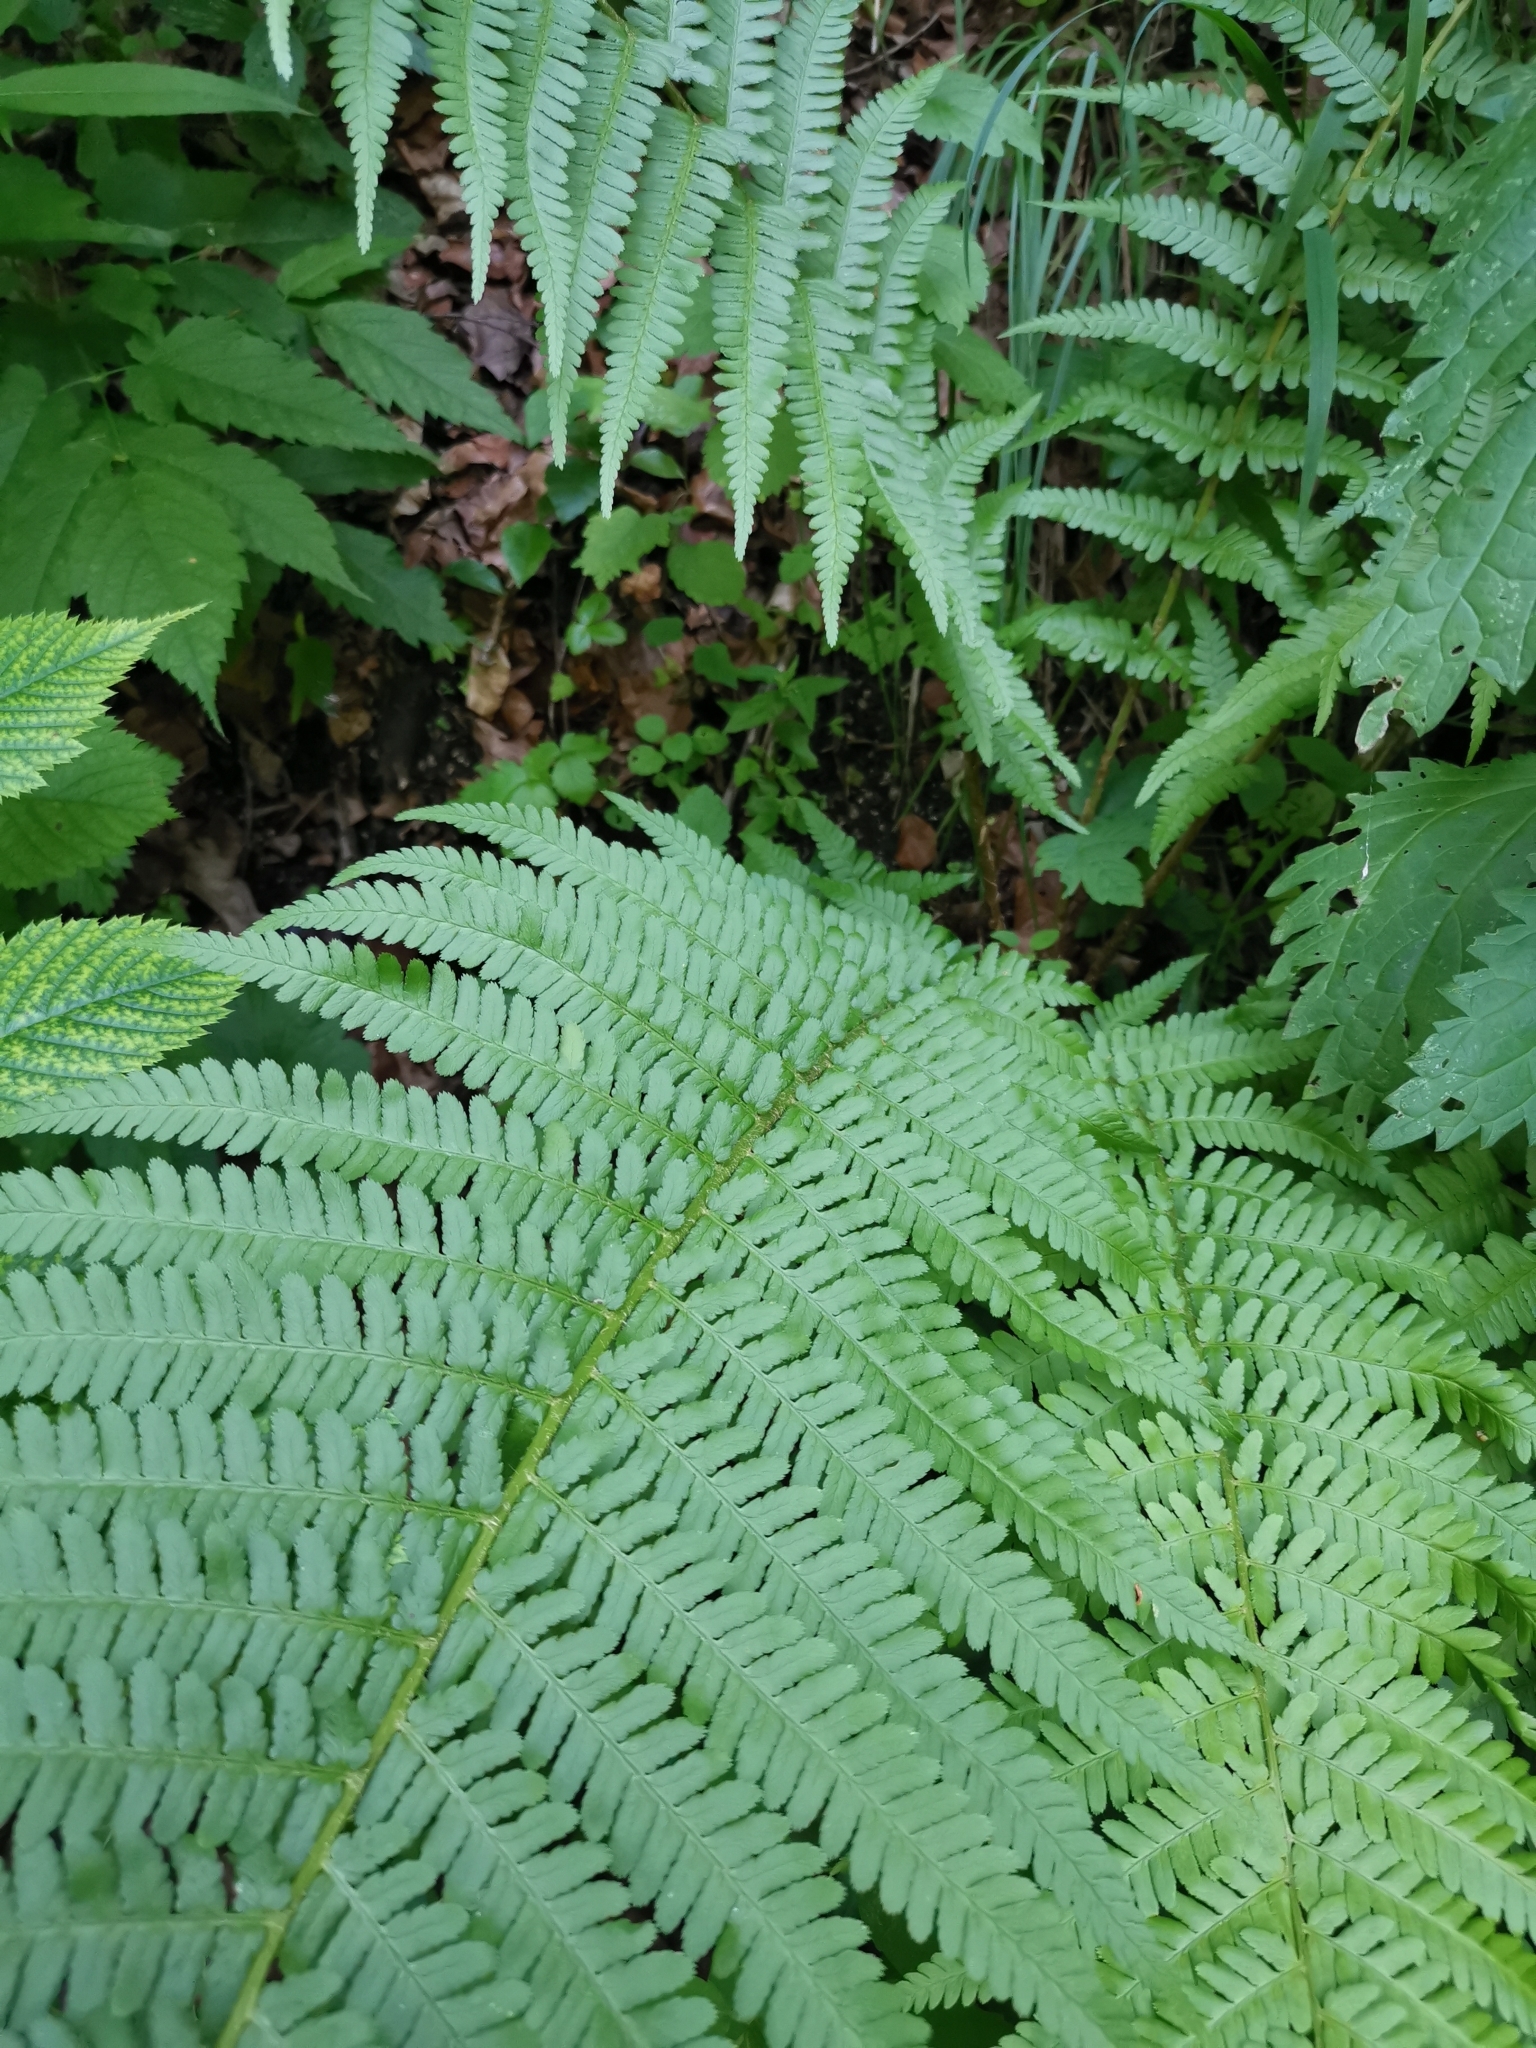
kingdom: Plantae
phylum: Tracheophyta
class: Polypodiopsida
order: Polypodiales
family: Dryopteridaceae
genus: Dryopteris
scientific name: Dryopteris filix-mas
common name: Male fern
